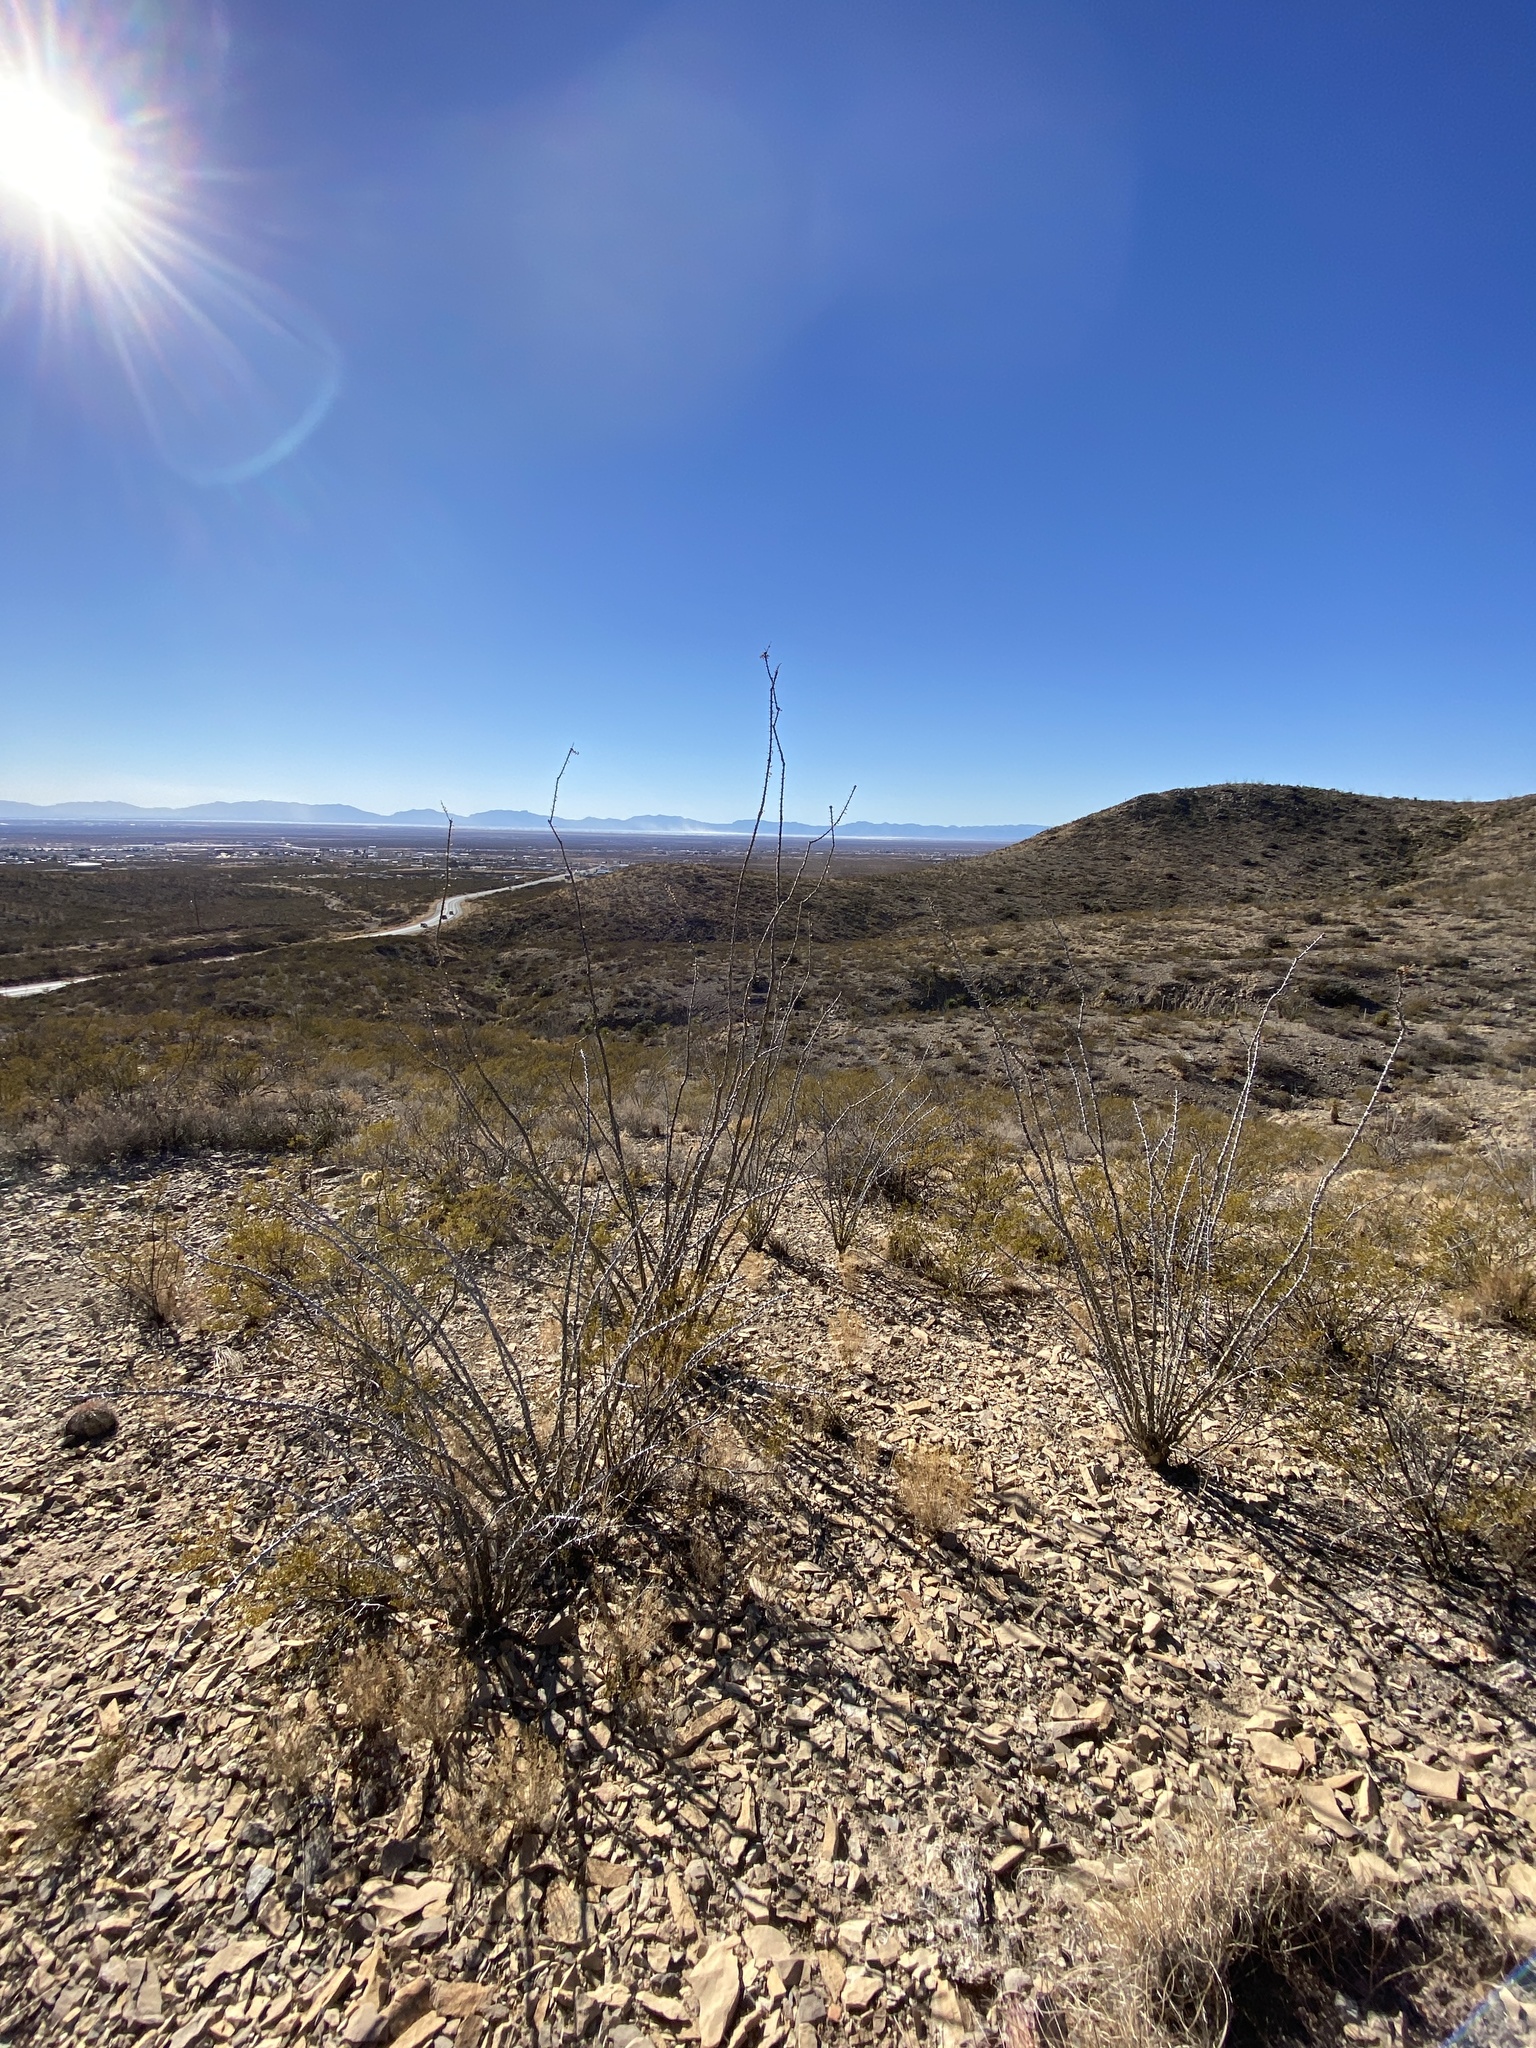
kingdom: Plantae
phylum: Tracheophyta
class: Magnoliopsida
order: Ericales
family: Fouquieriaceae
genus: Fouquieria
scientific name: Fouquieria splendens
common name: Vine-cactus
